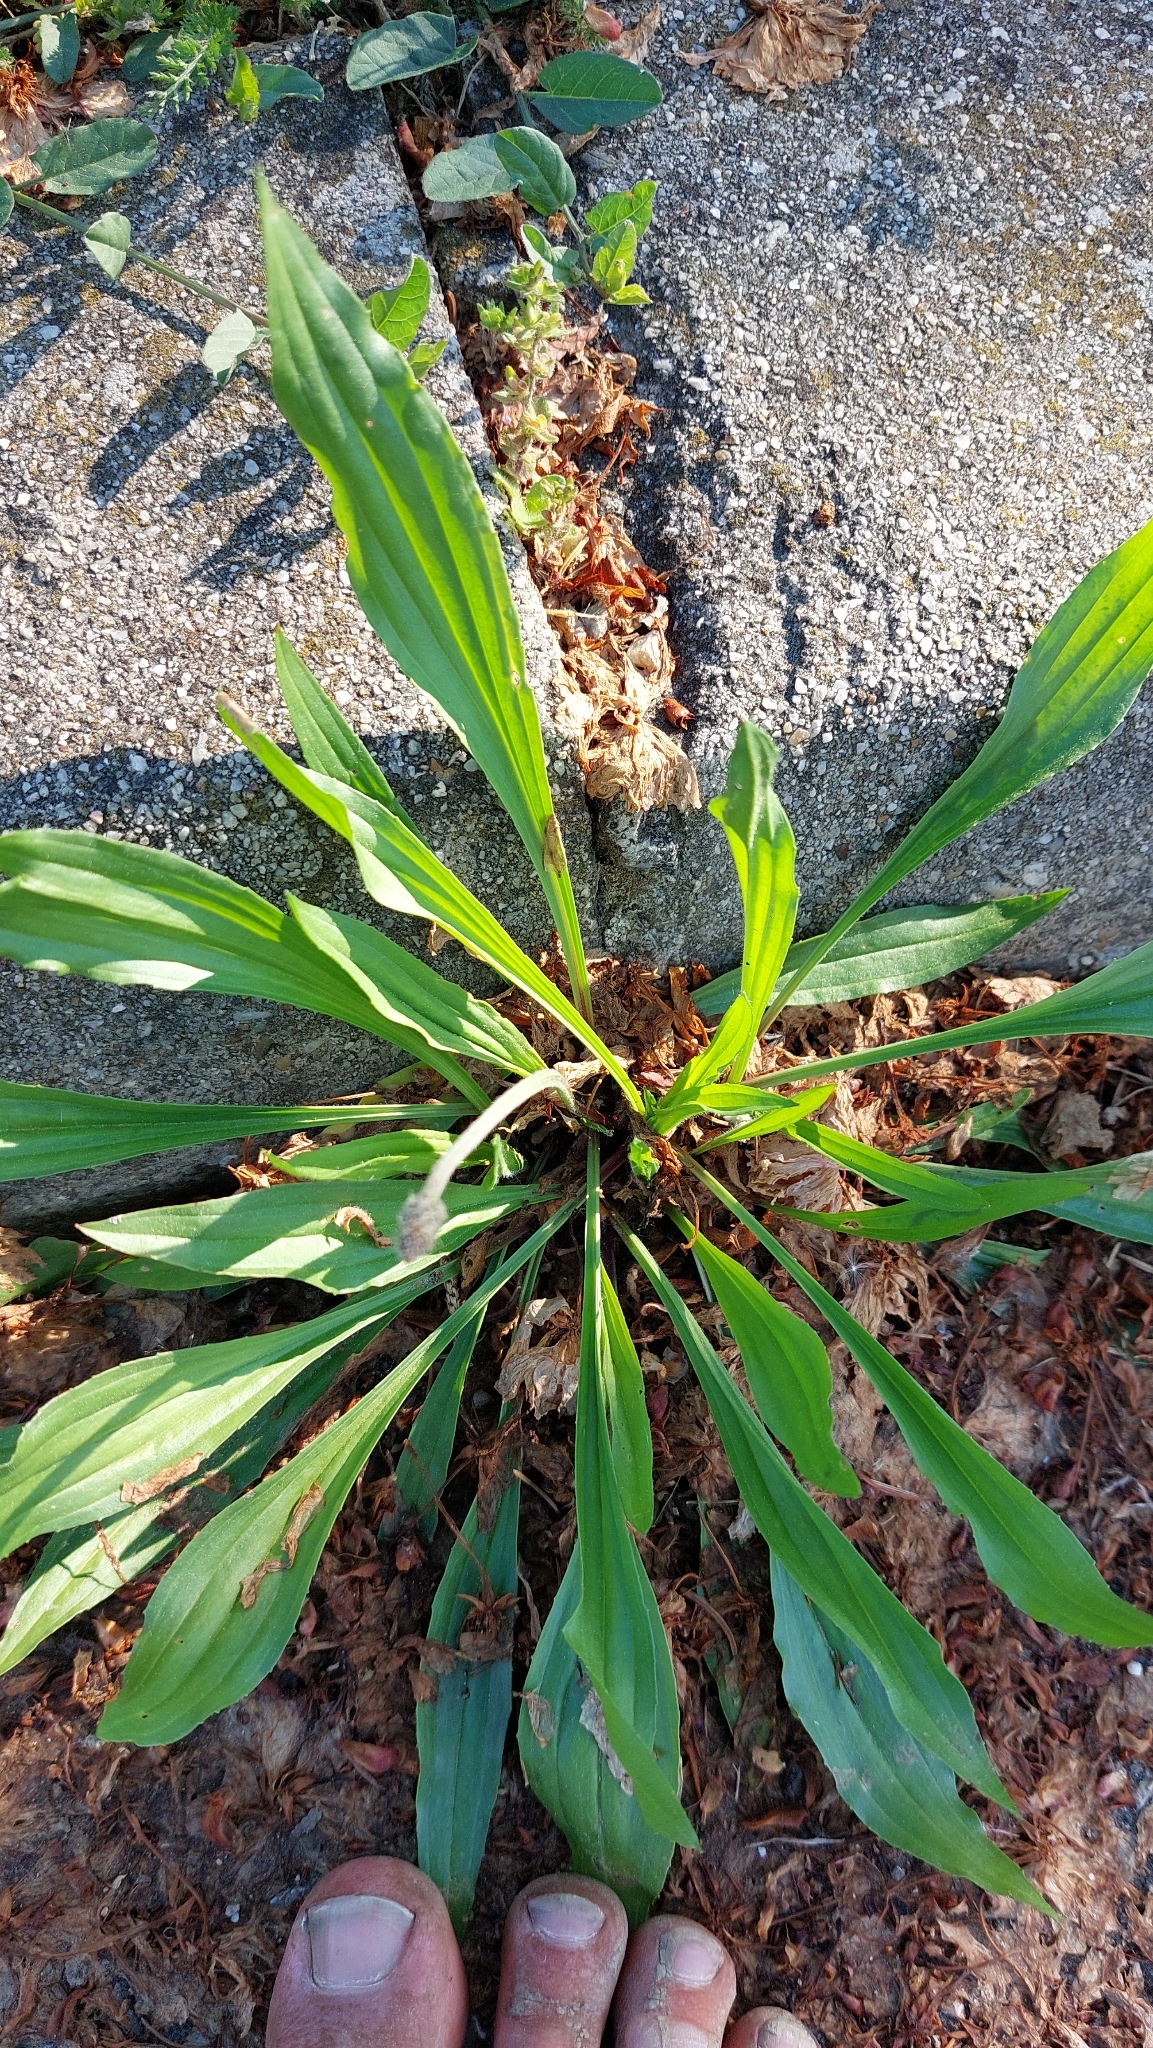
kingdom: Plantae
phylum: Tracheophyta
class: Magnoliopsida
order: Lamiales
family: Plantaginaceae
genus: Plantago
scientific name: Plantago lanceolata
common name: Ribwort plantain
